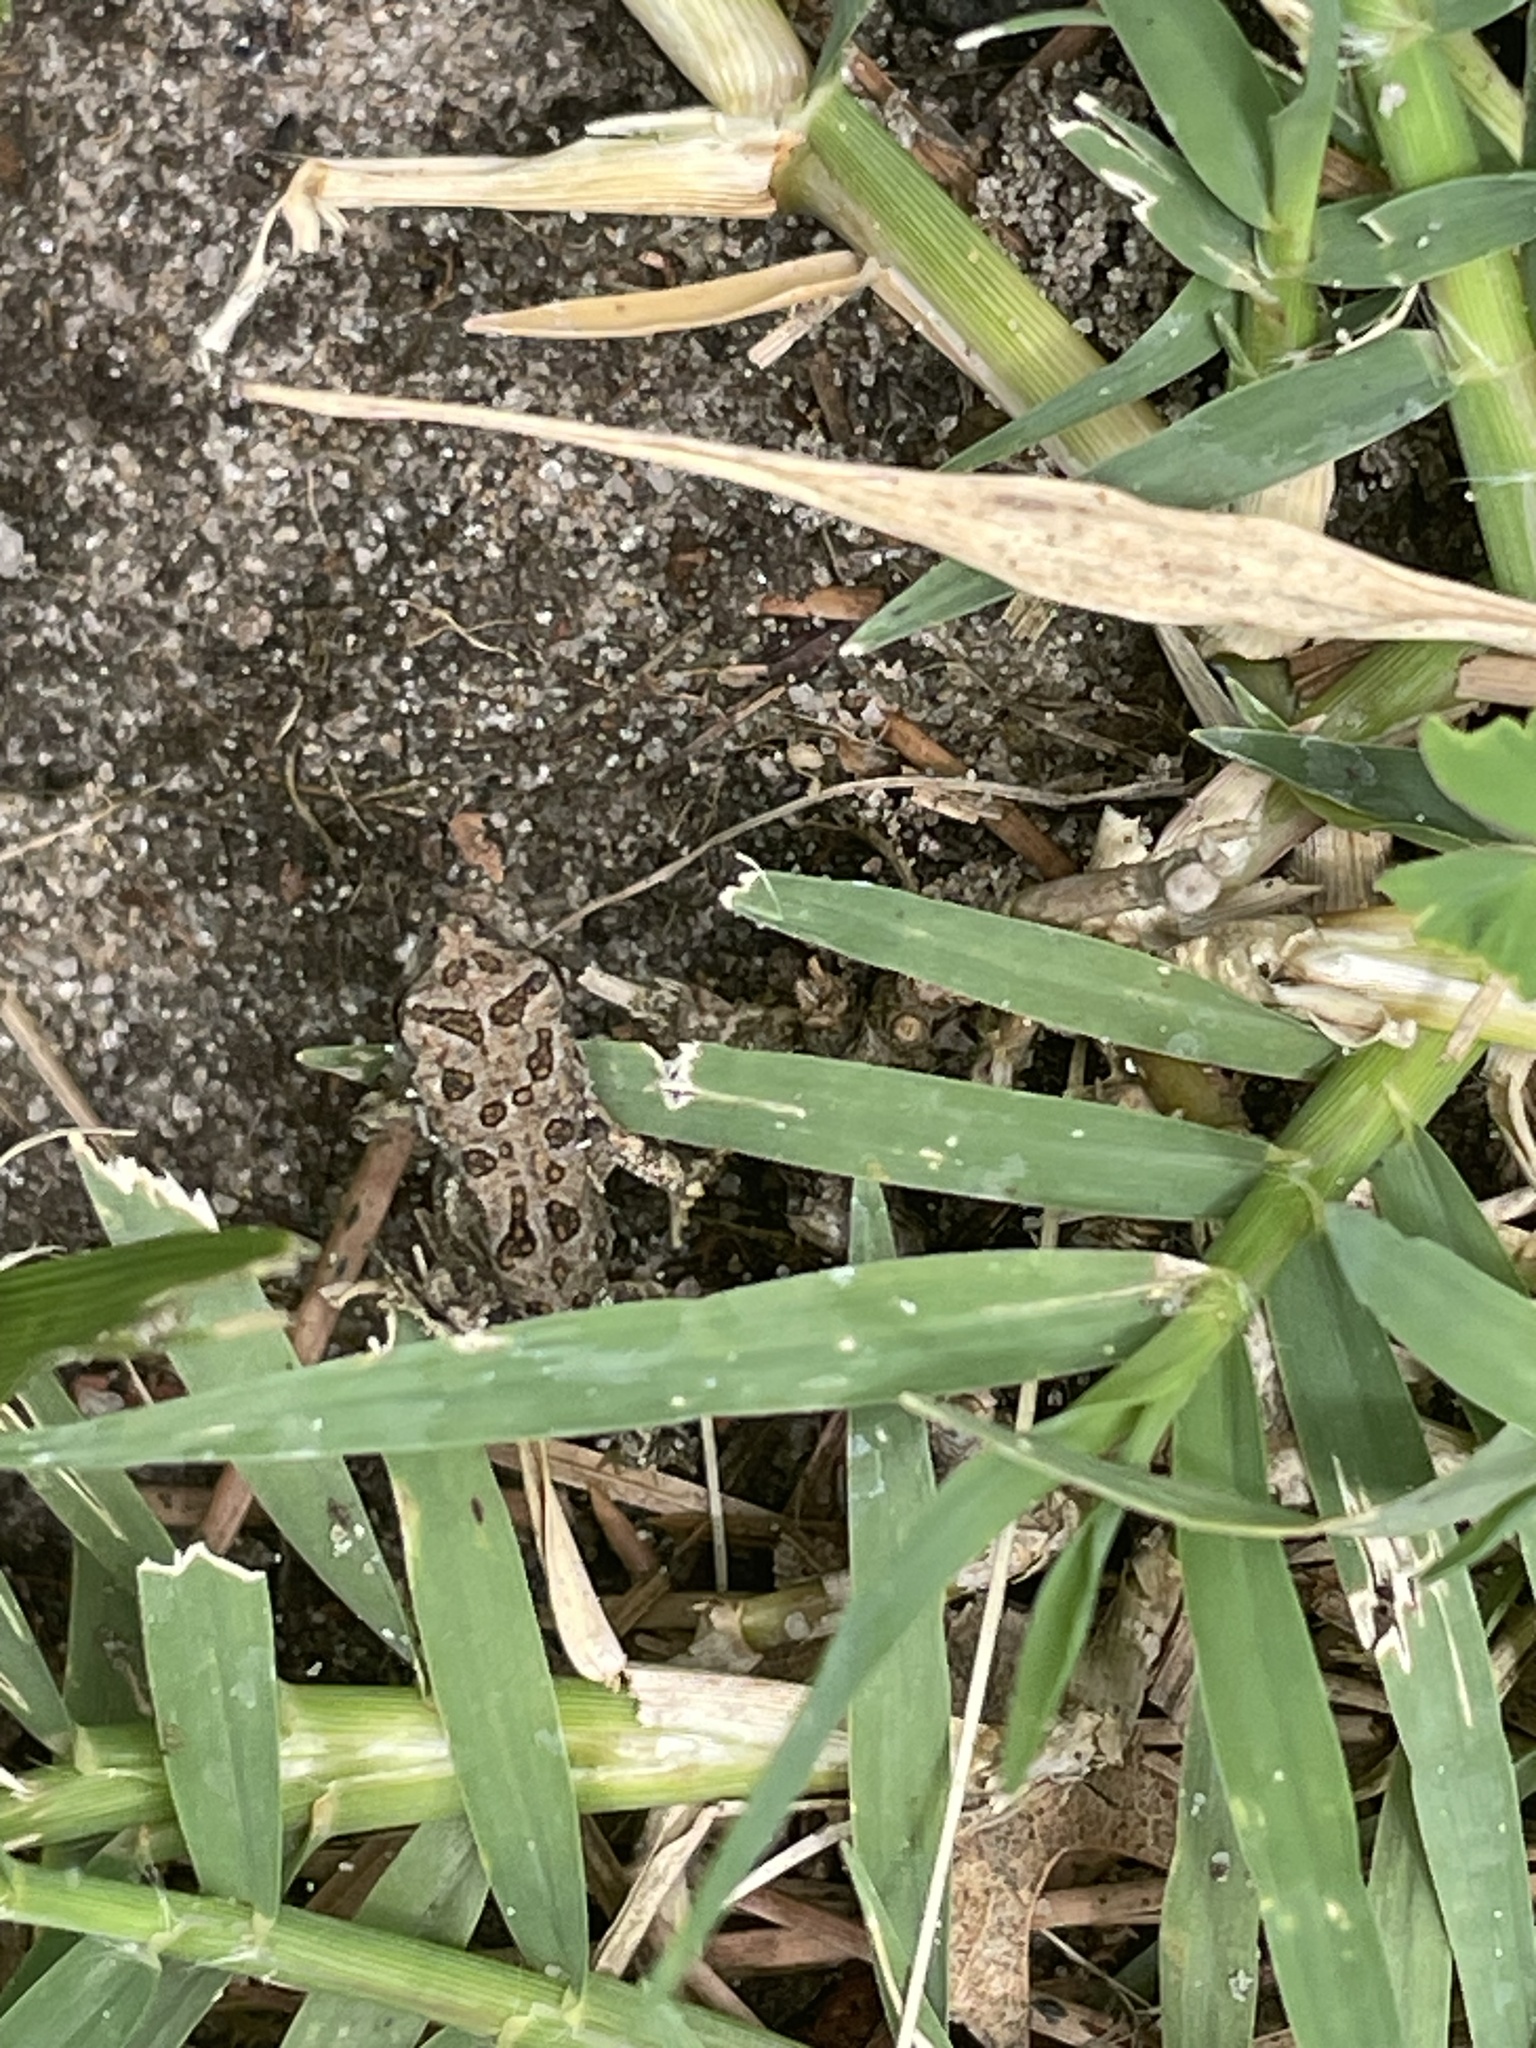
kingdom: Animalia
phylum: Chordata
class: Amphibia
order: Anura
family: Bufonidae
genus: Anaxyrus
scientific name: Anaxyrus fowleri
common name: Fowler's toad
